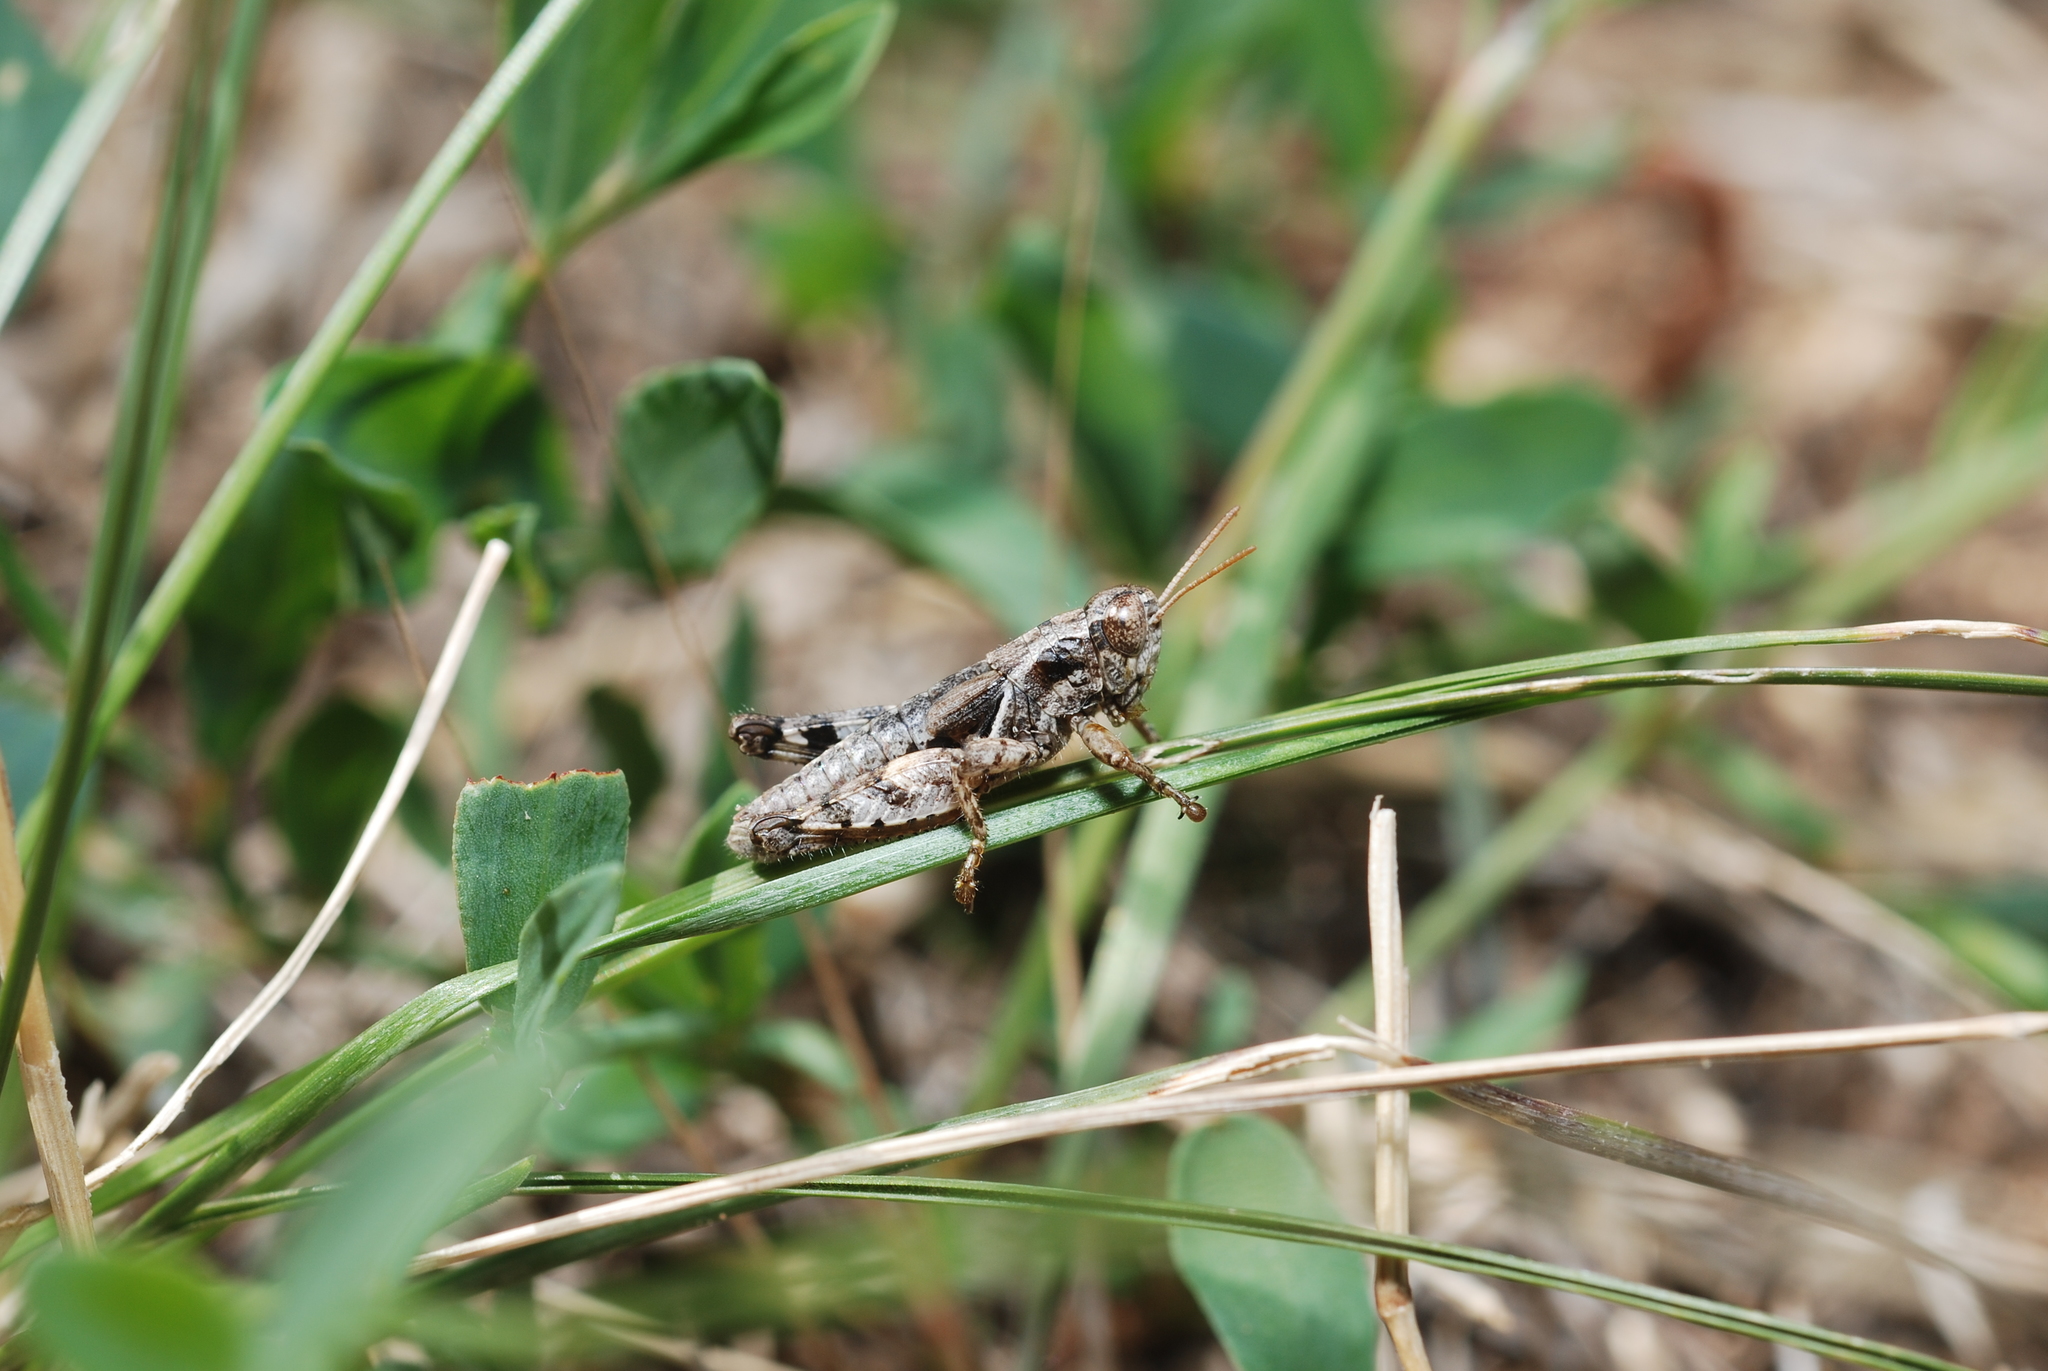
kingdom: Animalia
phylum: Arthropoda
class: Insecta
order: Orthoptera
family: Acrididae
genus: Pezotettix
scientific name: Pezotettix giornae
